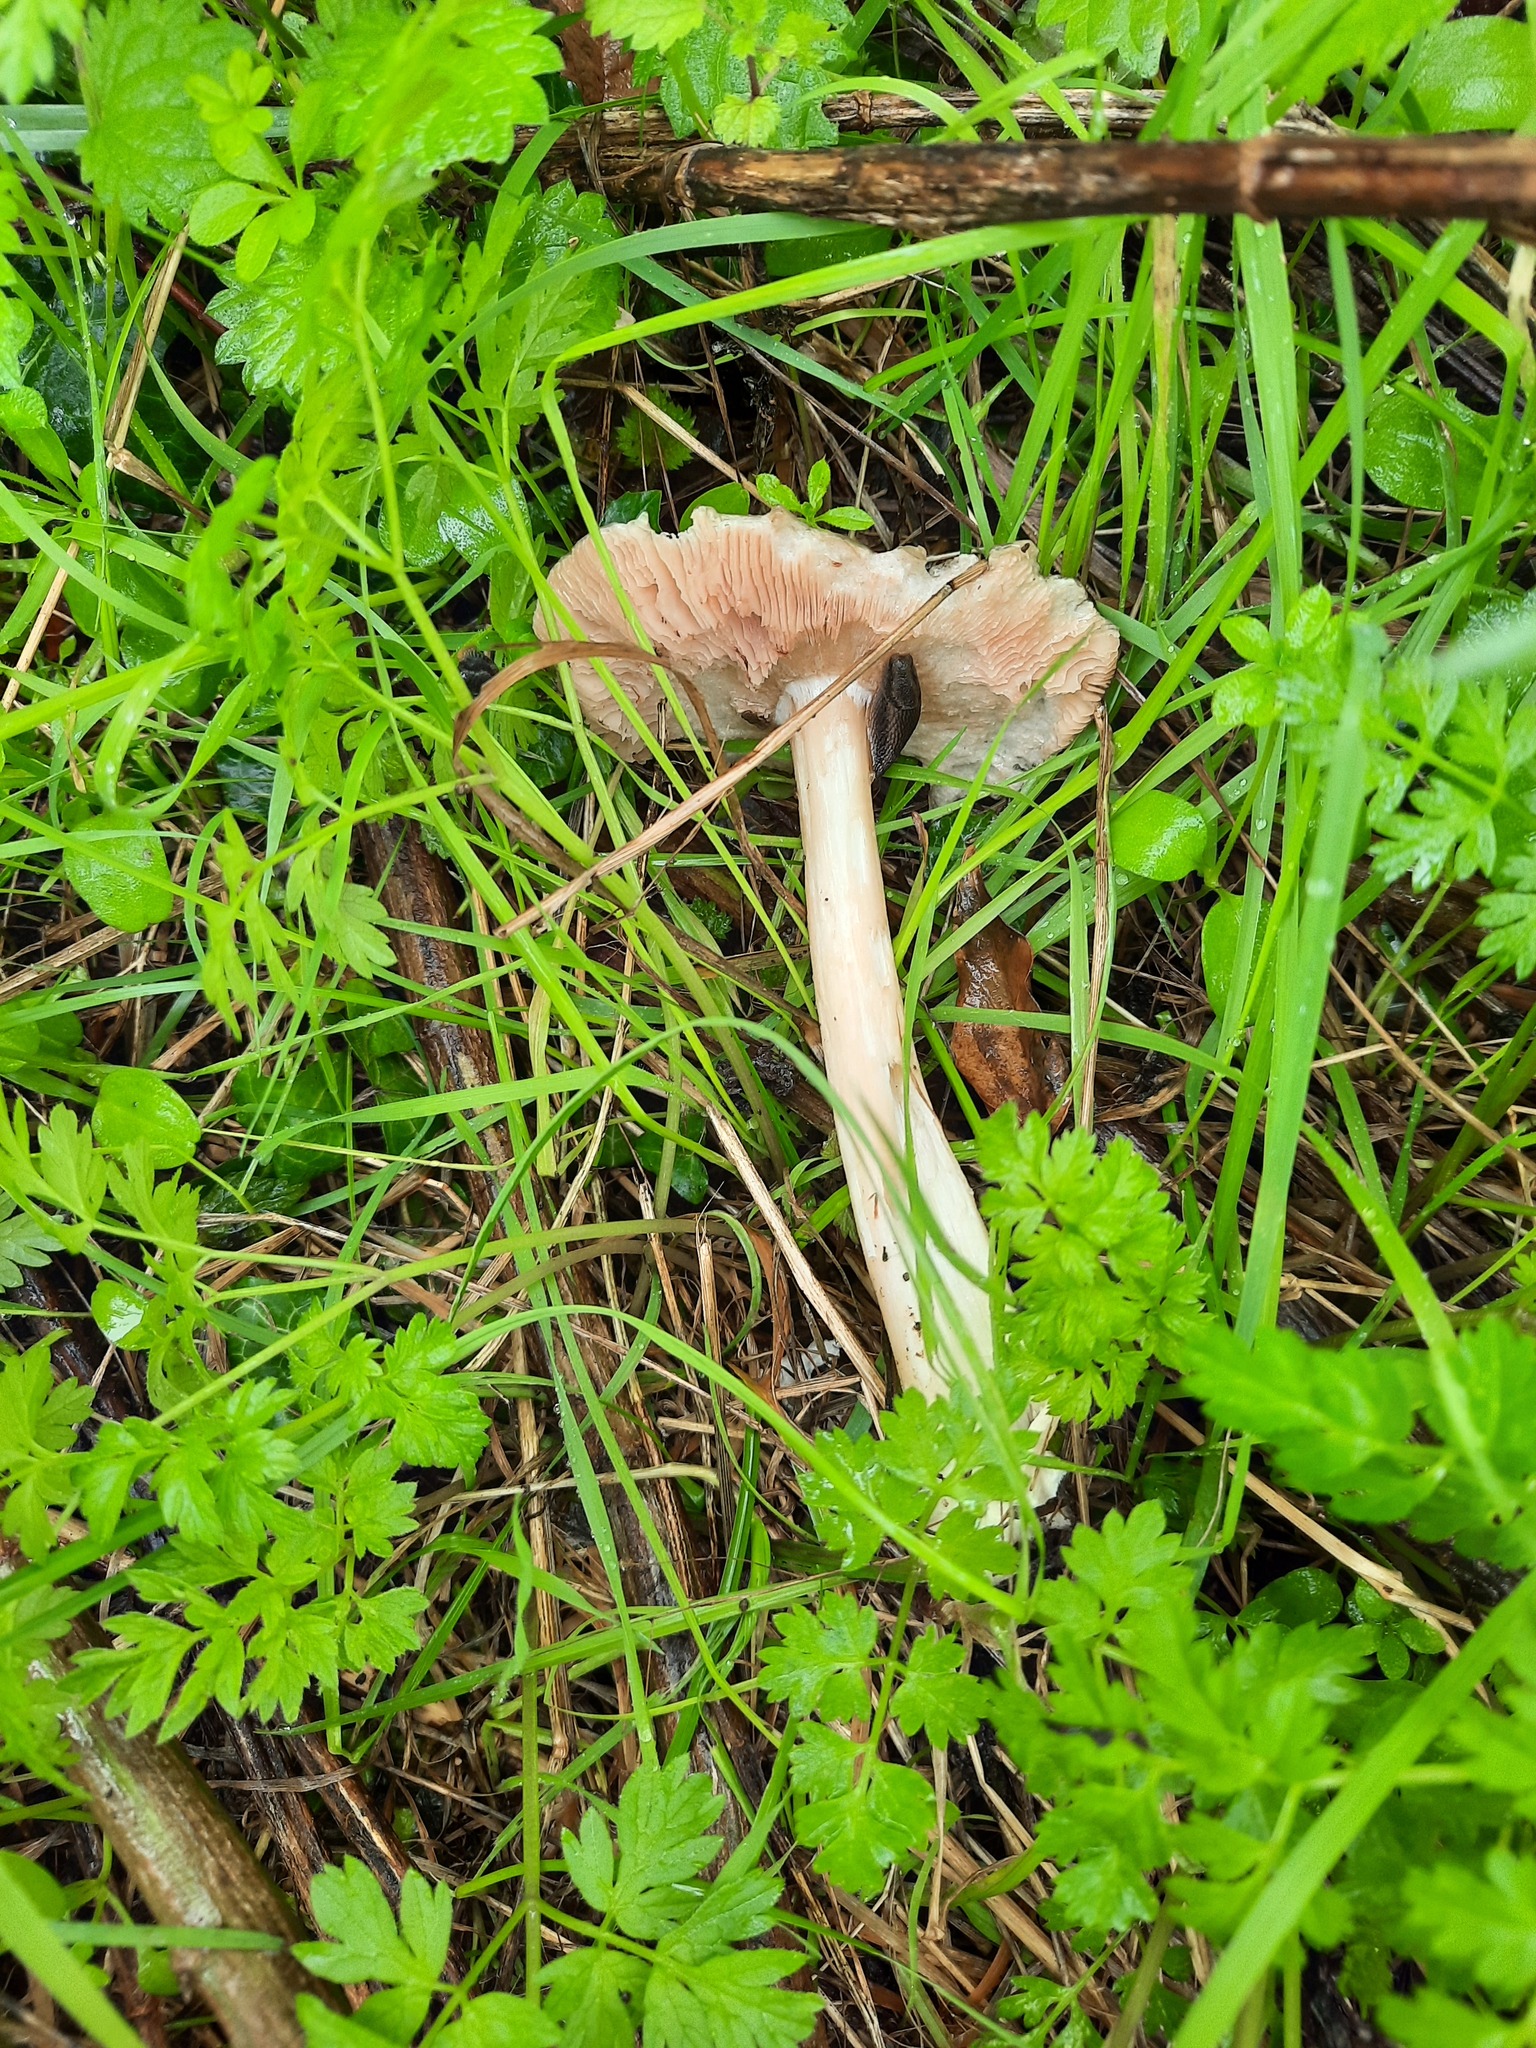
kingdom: Fungi
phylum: Basidiomycota
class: Agaricomycetes
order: Agaricales
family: Pluteaceae
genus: Volvopluteus
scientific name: Volvopluteus gloiocephalus
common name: Stubble rosegill
